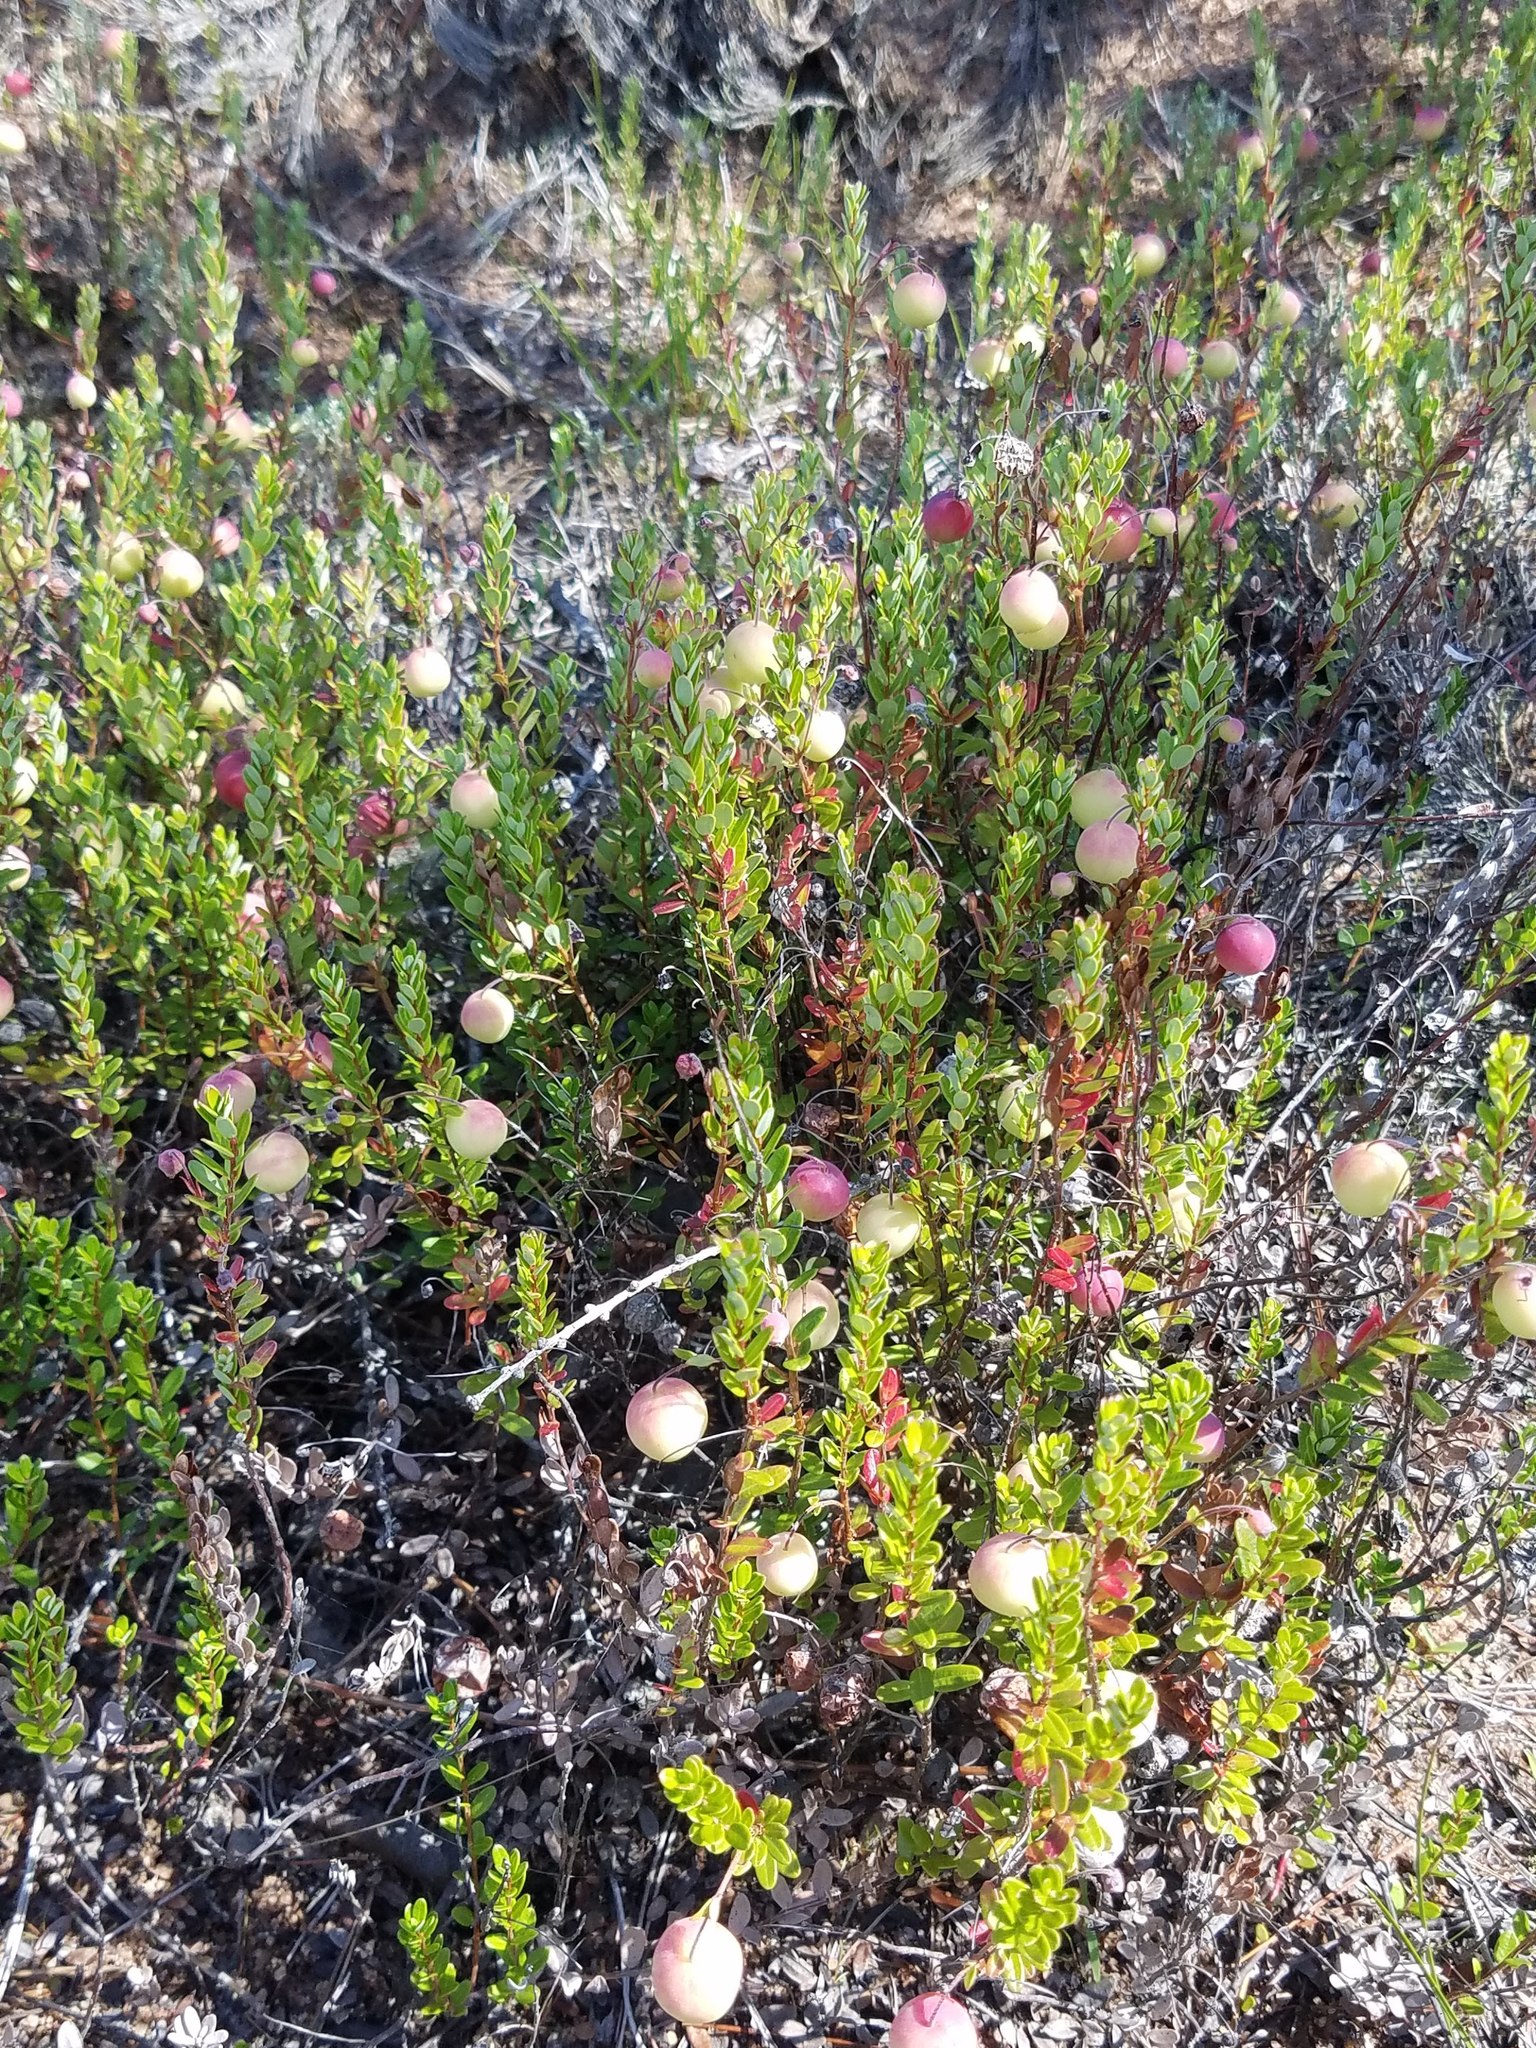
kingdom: Plantae
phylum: Tracheophyta
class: Magnoliopsida
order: Ericales
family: Ericaceae
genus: Vaccinium
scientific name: Vaccinium macrocarpon
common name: American cranberry
